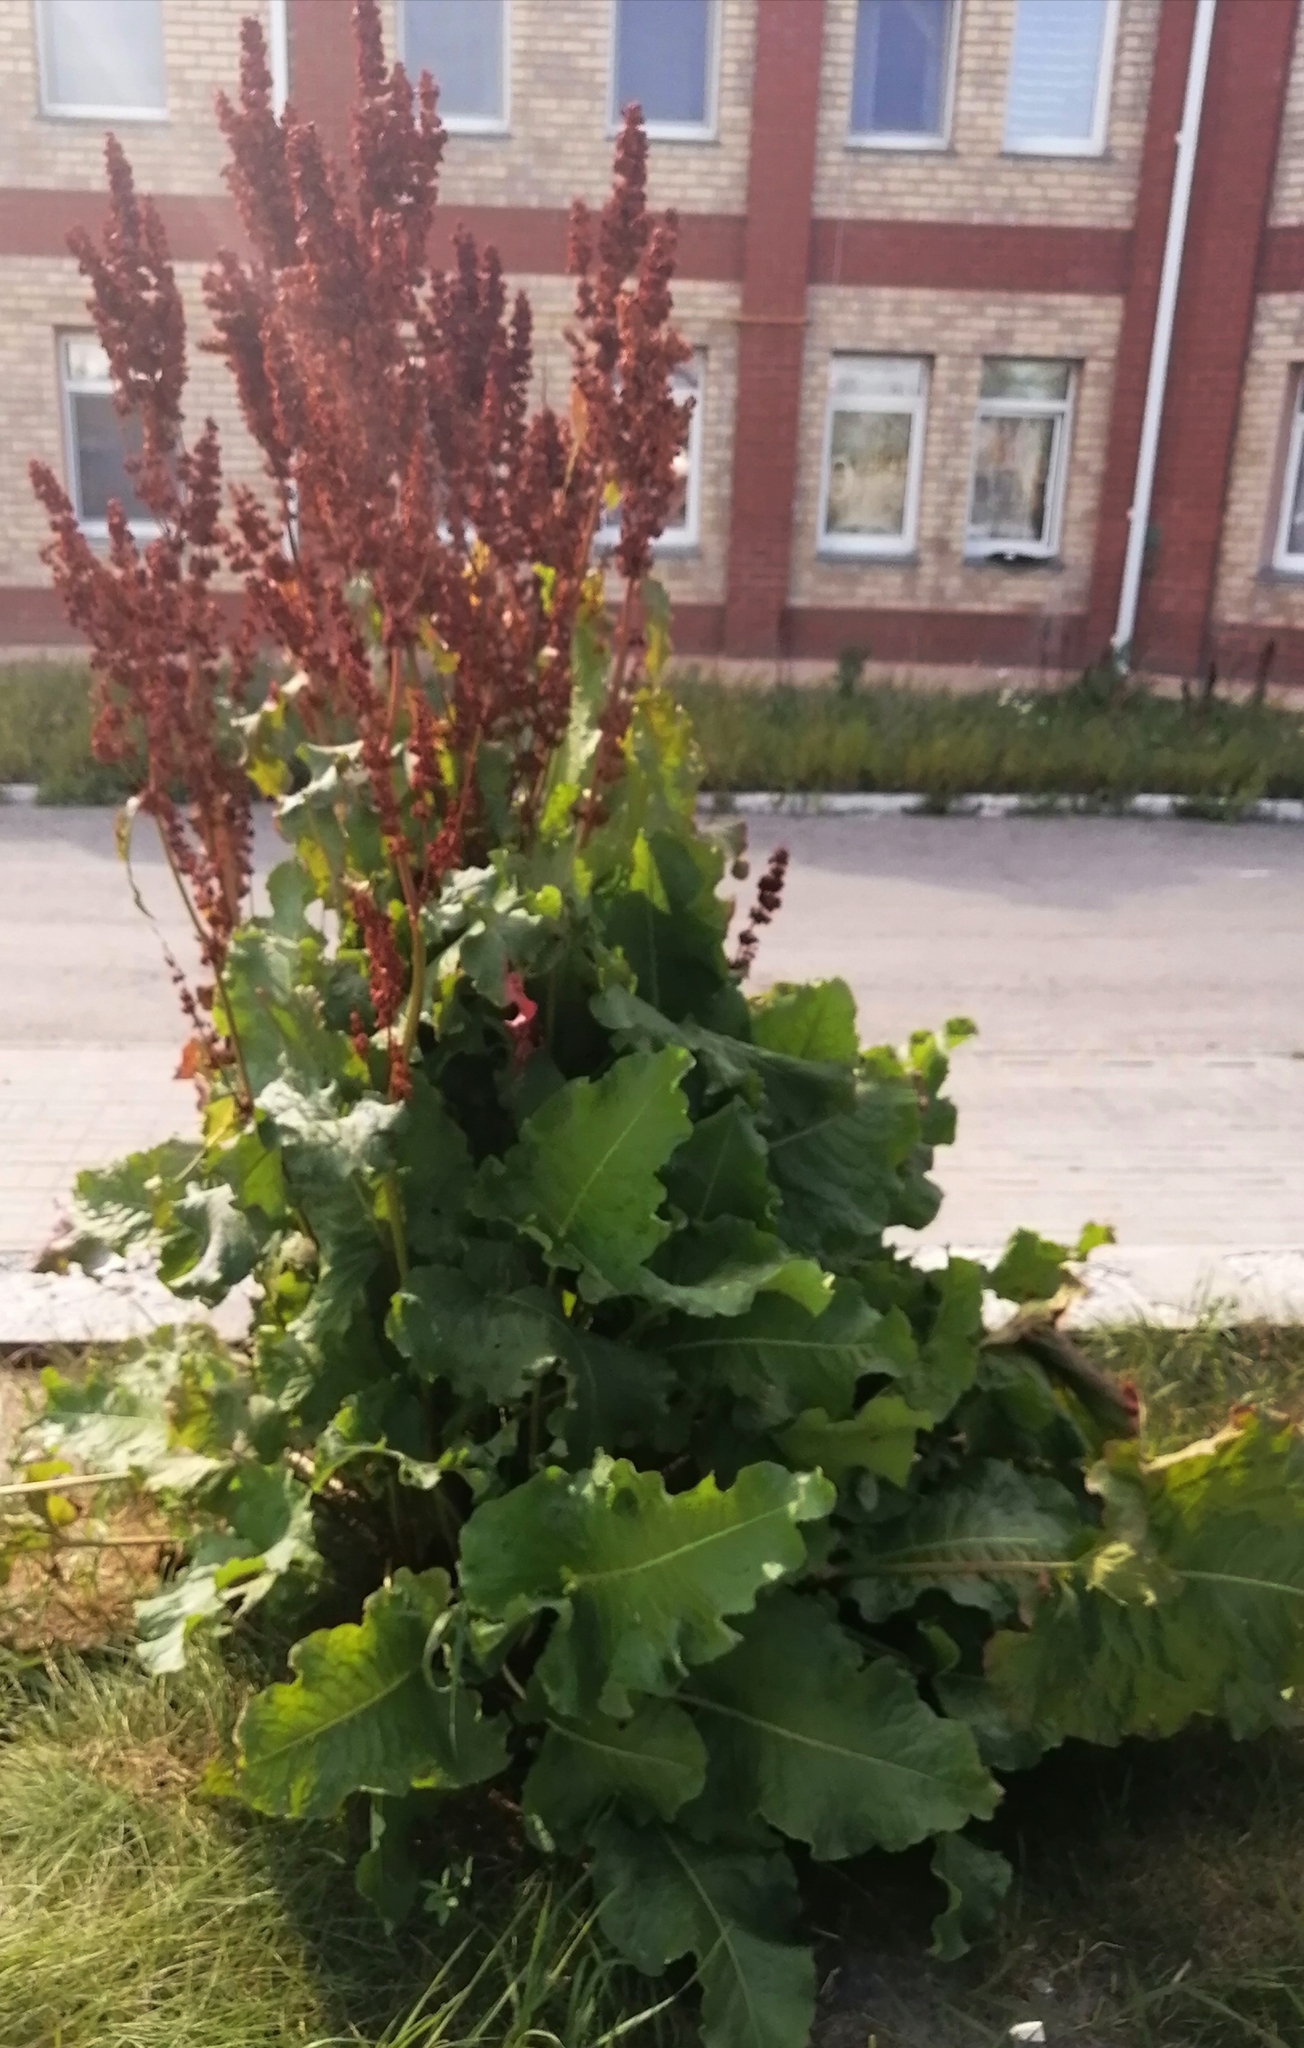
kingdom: Plantae
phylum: Tracheophyta
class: Magnoliopsida
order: Caryophyllales
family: Polygonaceae
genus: Rumex
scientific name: Rumex confertus
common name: Russian dock
